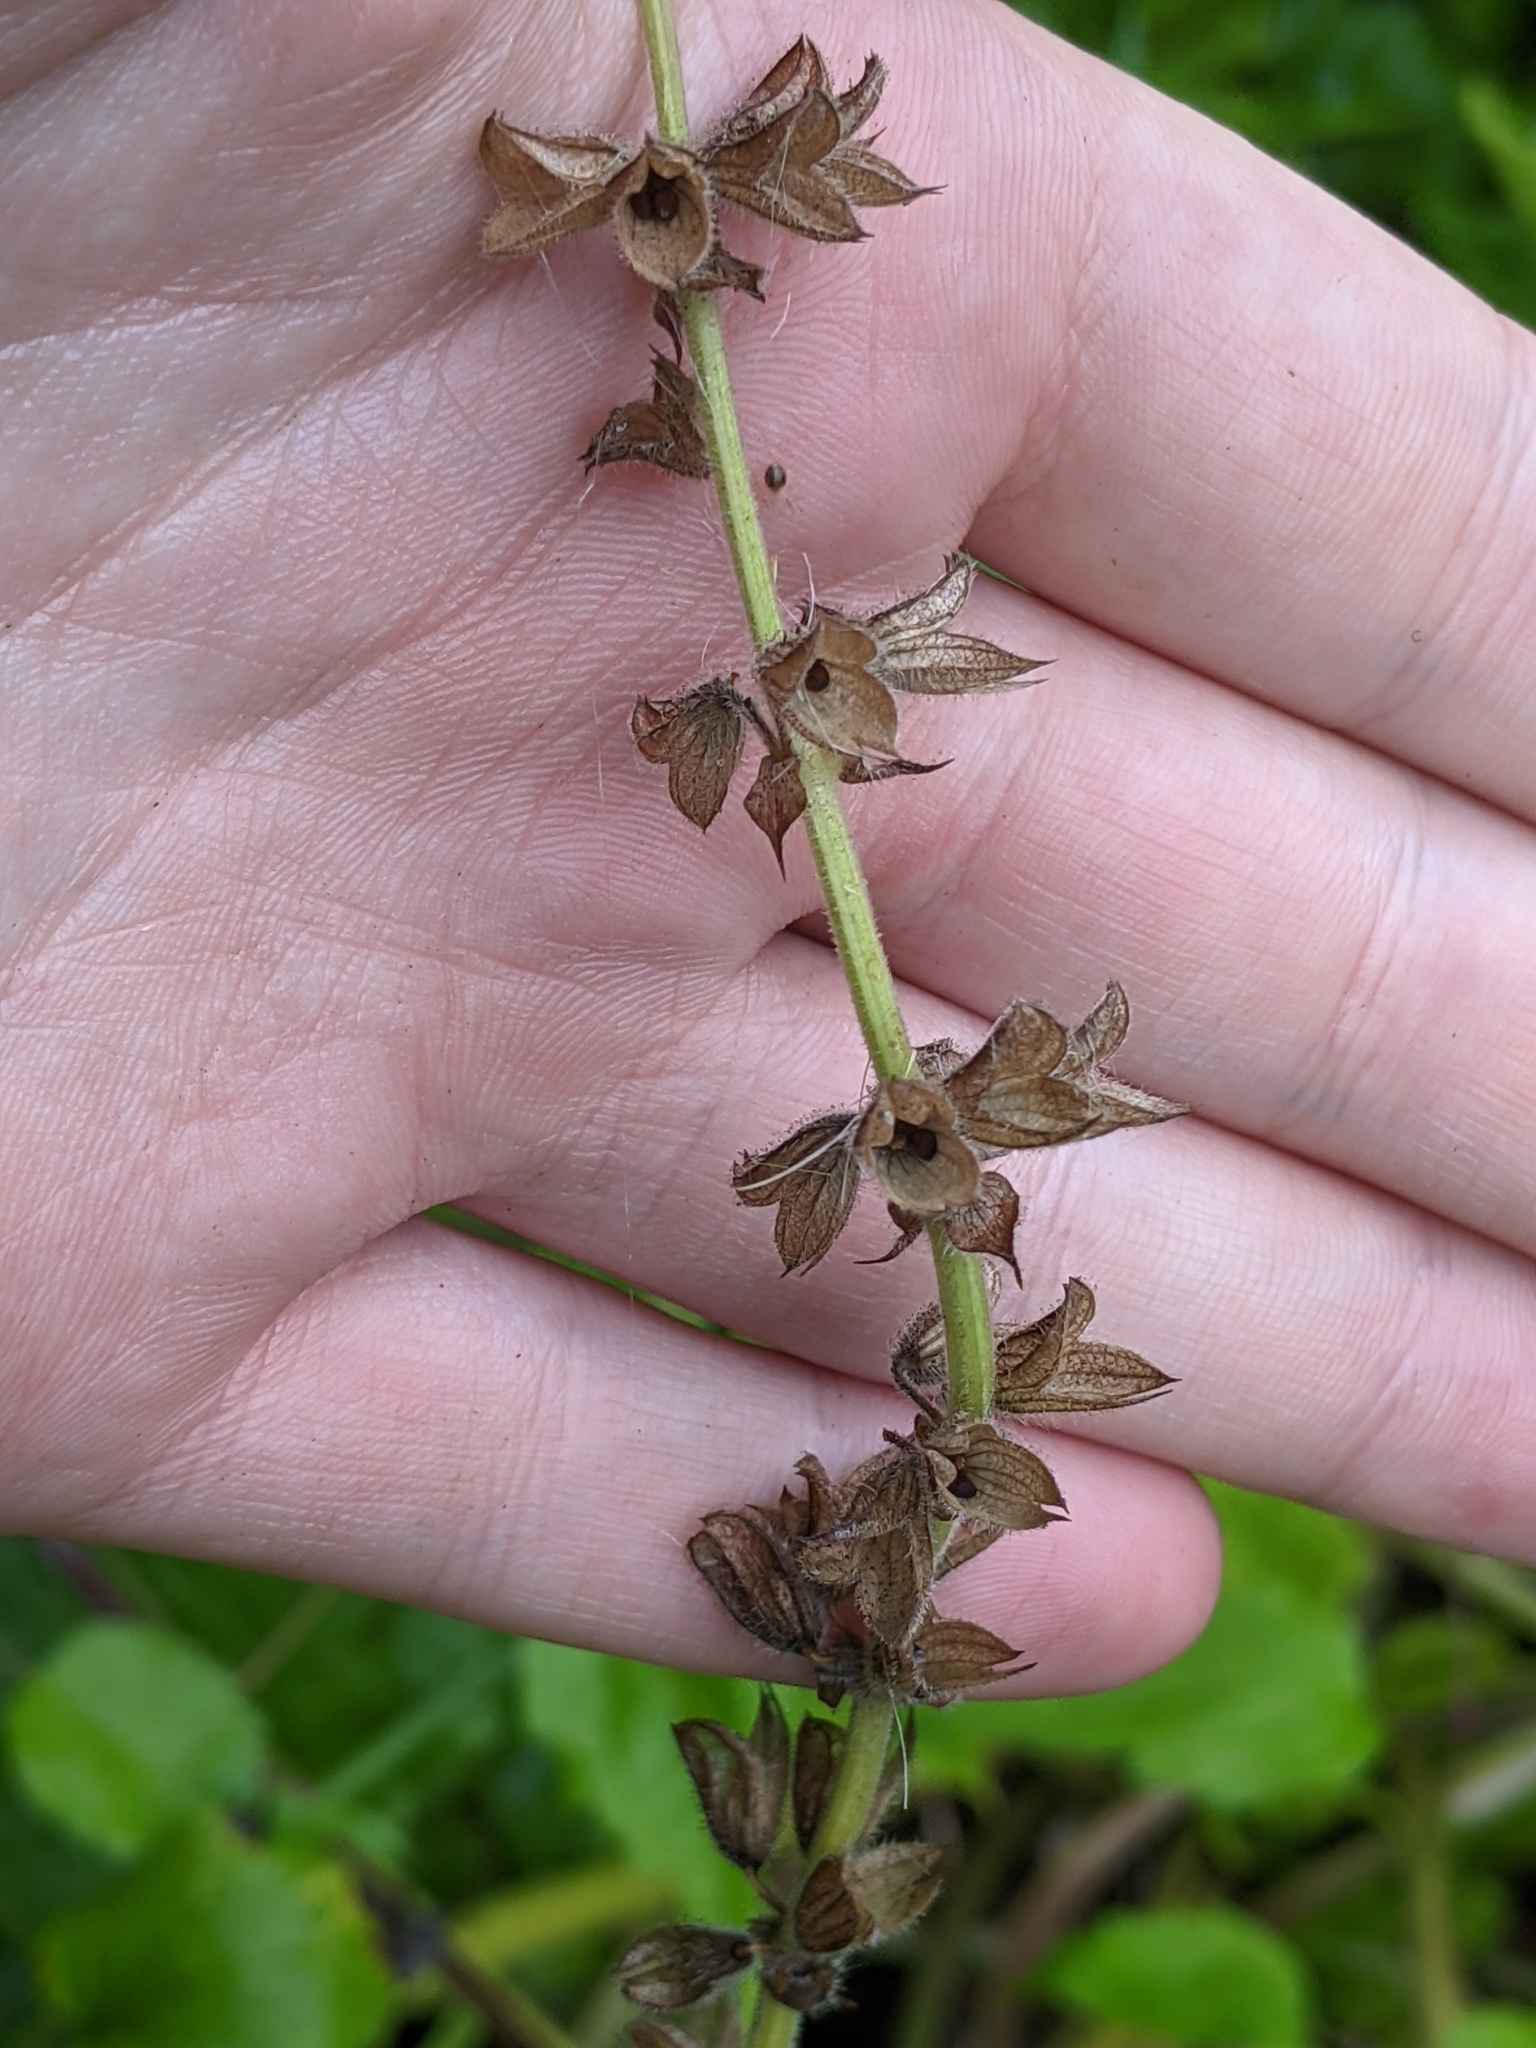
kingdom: Plantae
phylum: Tracheophyta
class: Magnoliopsida
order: Lamiales
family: Lamiaceae
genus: Salvia
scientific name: Salvia pratensis
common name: Meadow sage
